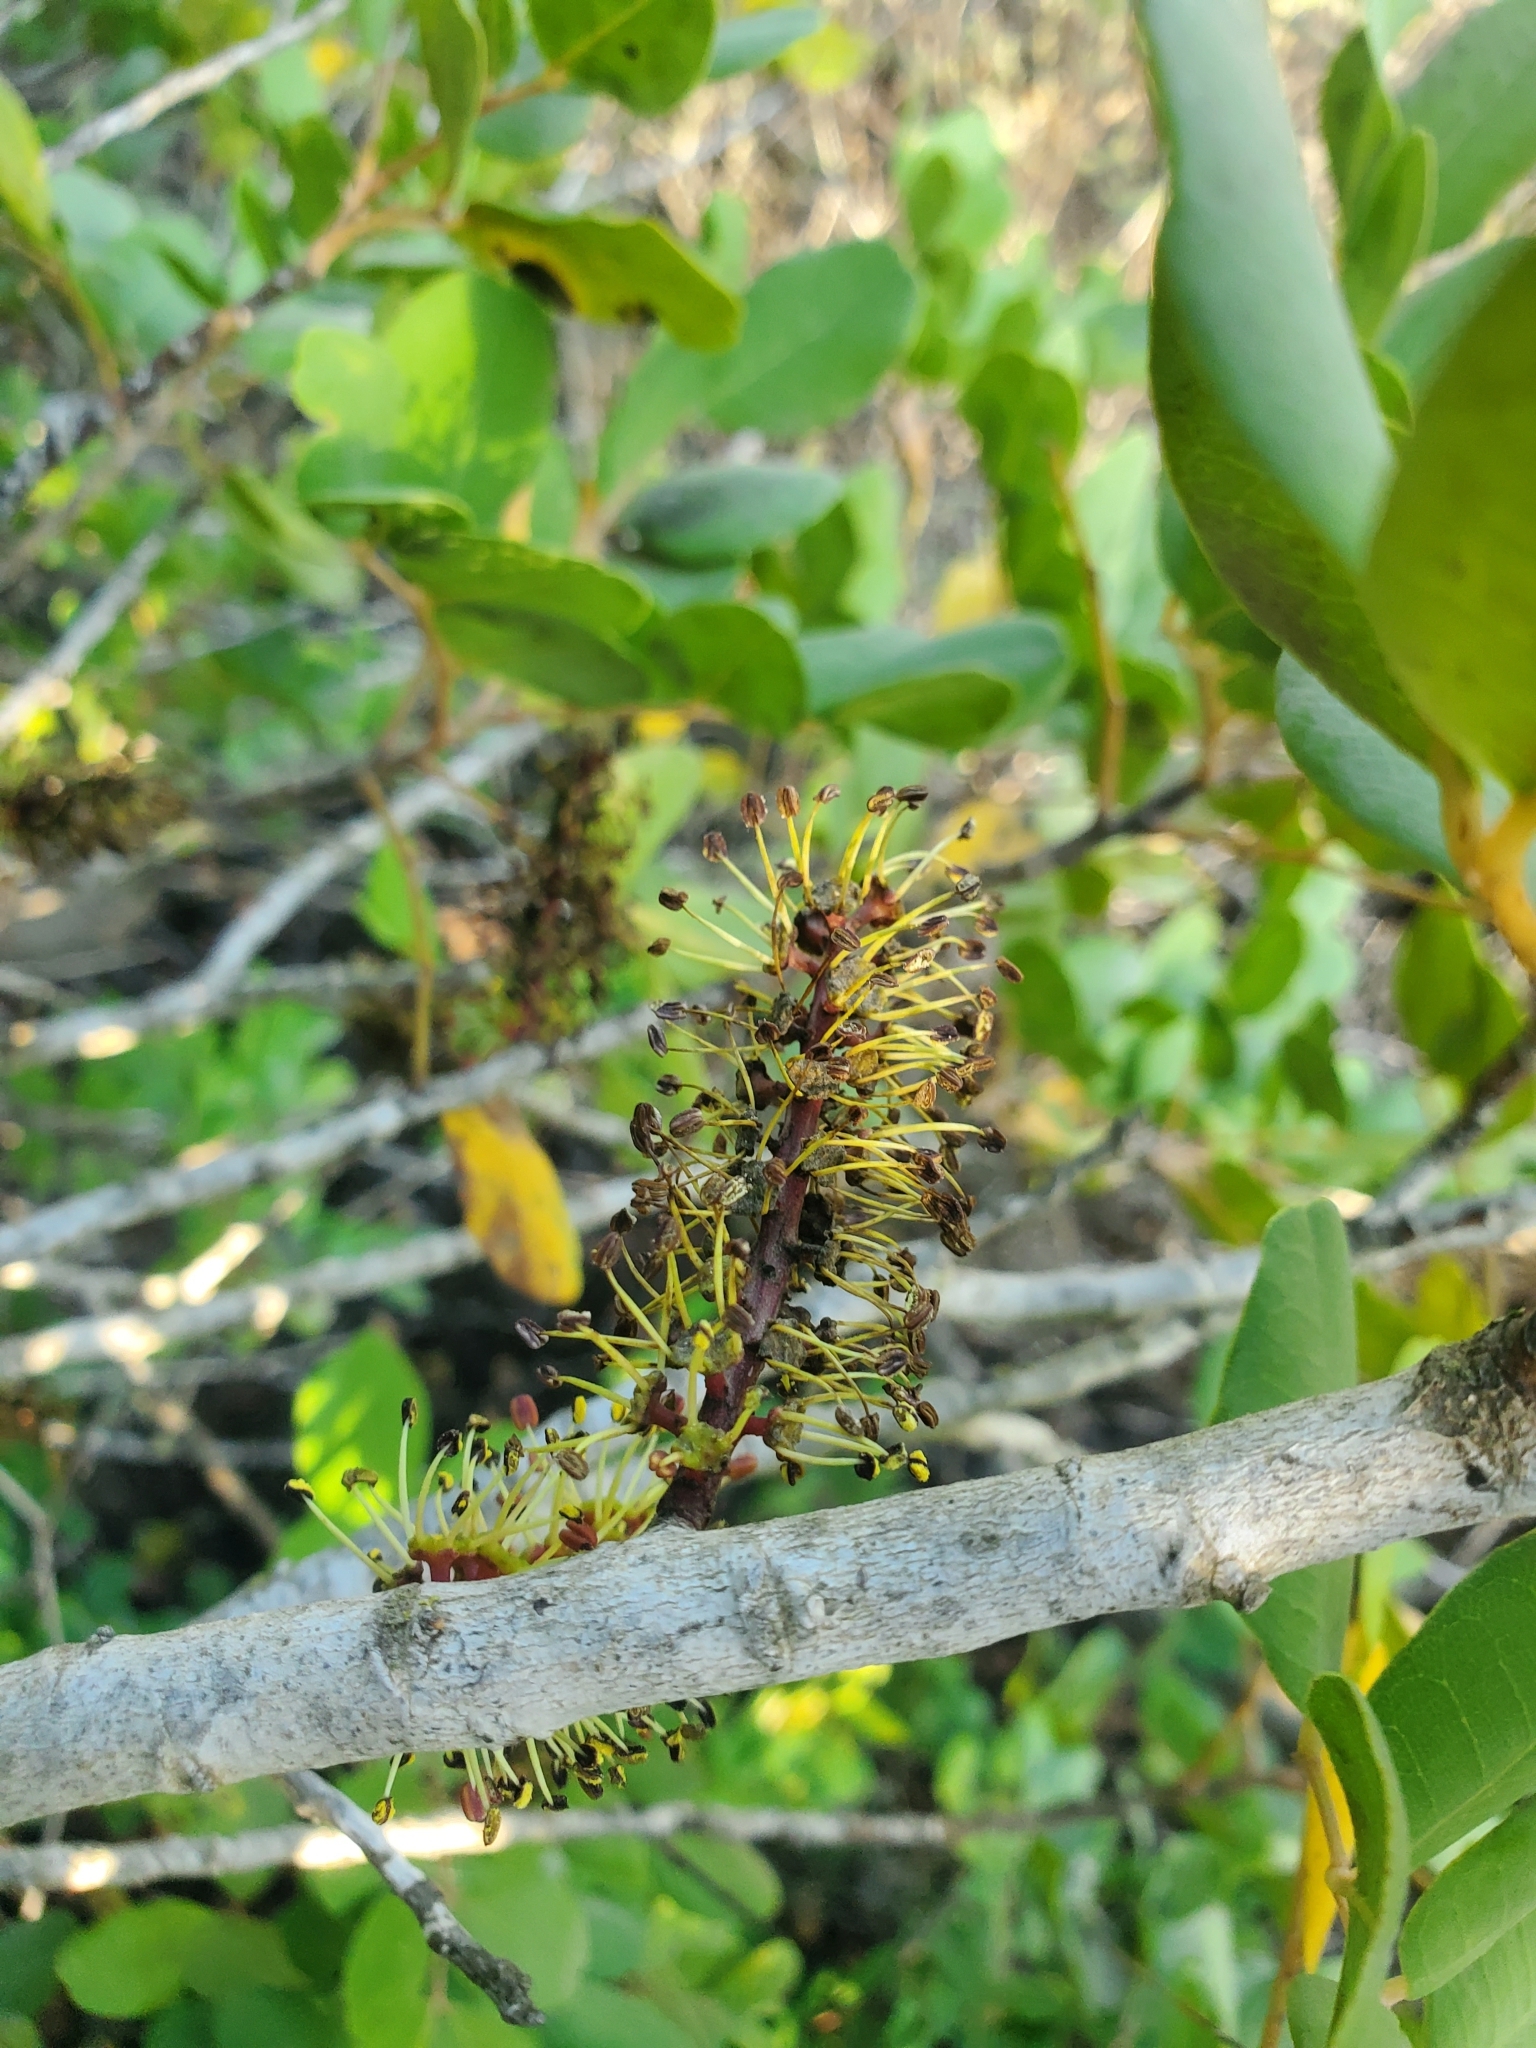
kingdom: Plantae
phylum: Tracheophyta
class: Magnoliopsida
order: Fabales
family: Fabaceae
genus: Ceratonia
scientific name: Ceratonia siliqua
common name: Carob
